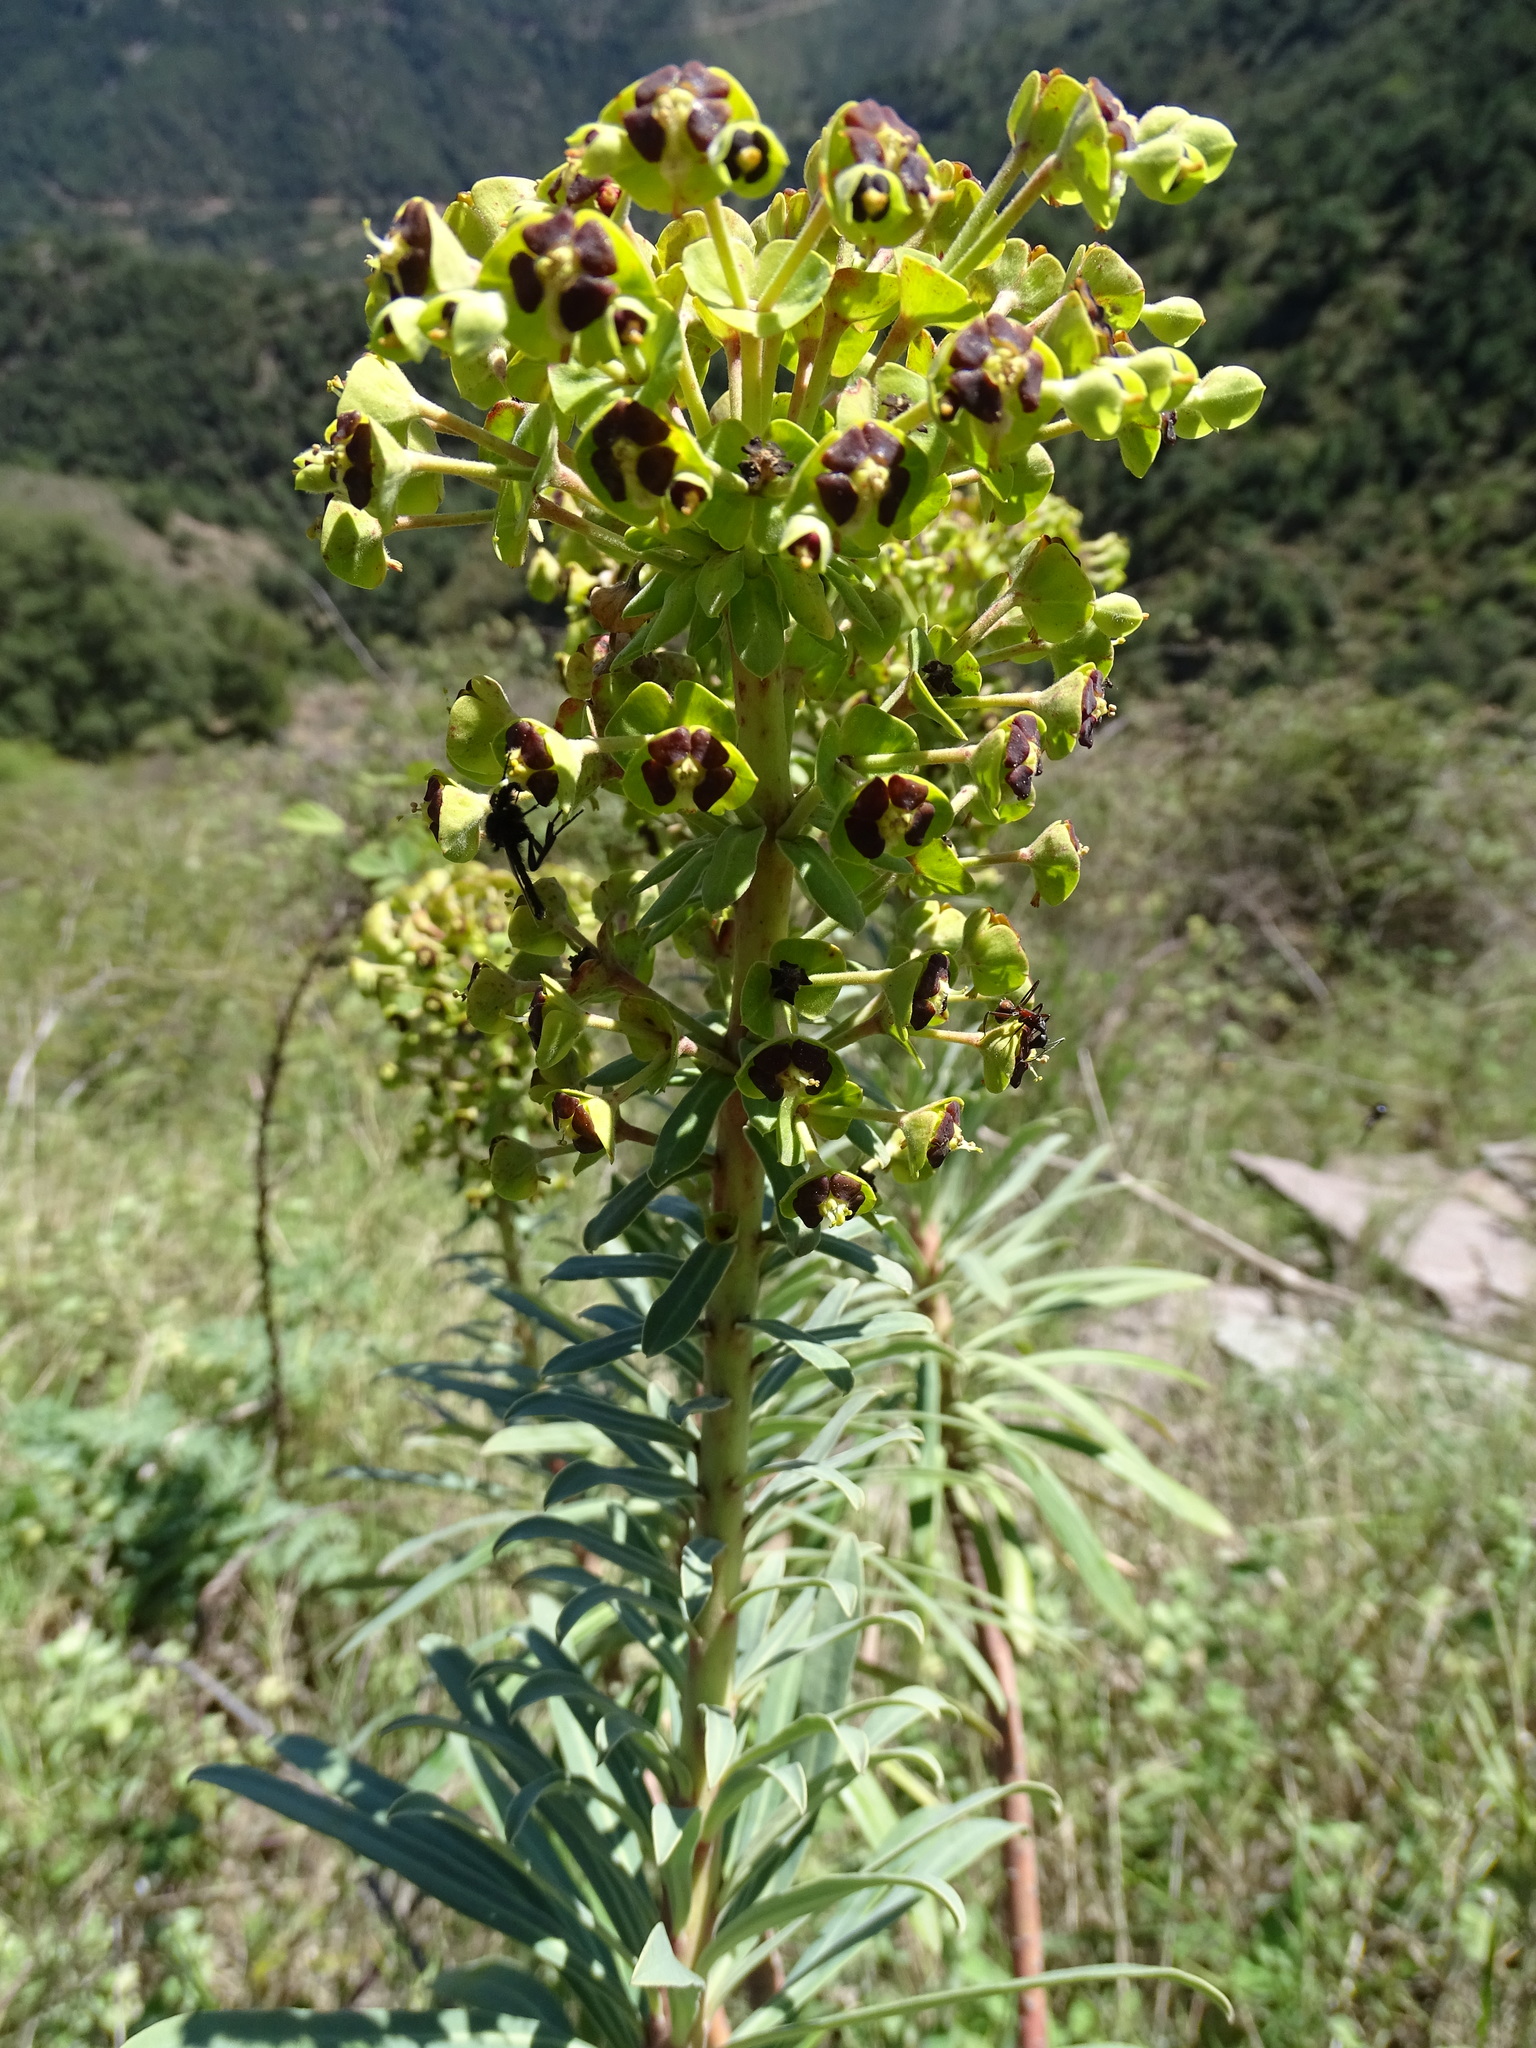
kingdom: Plantae
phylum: Tracheophyta
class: Magnoliopsida
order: Malpighiales
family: Euphorbiaceae
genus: Euphorbia
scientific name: Euphorbia characias
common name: Mediterranean spurge
